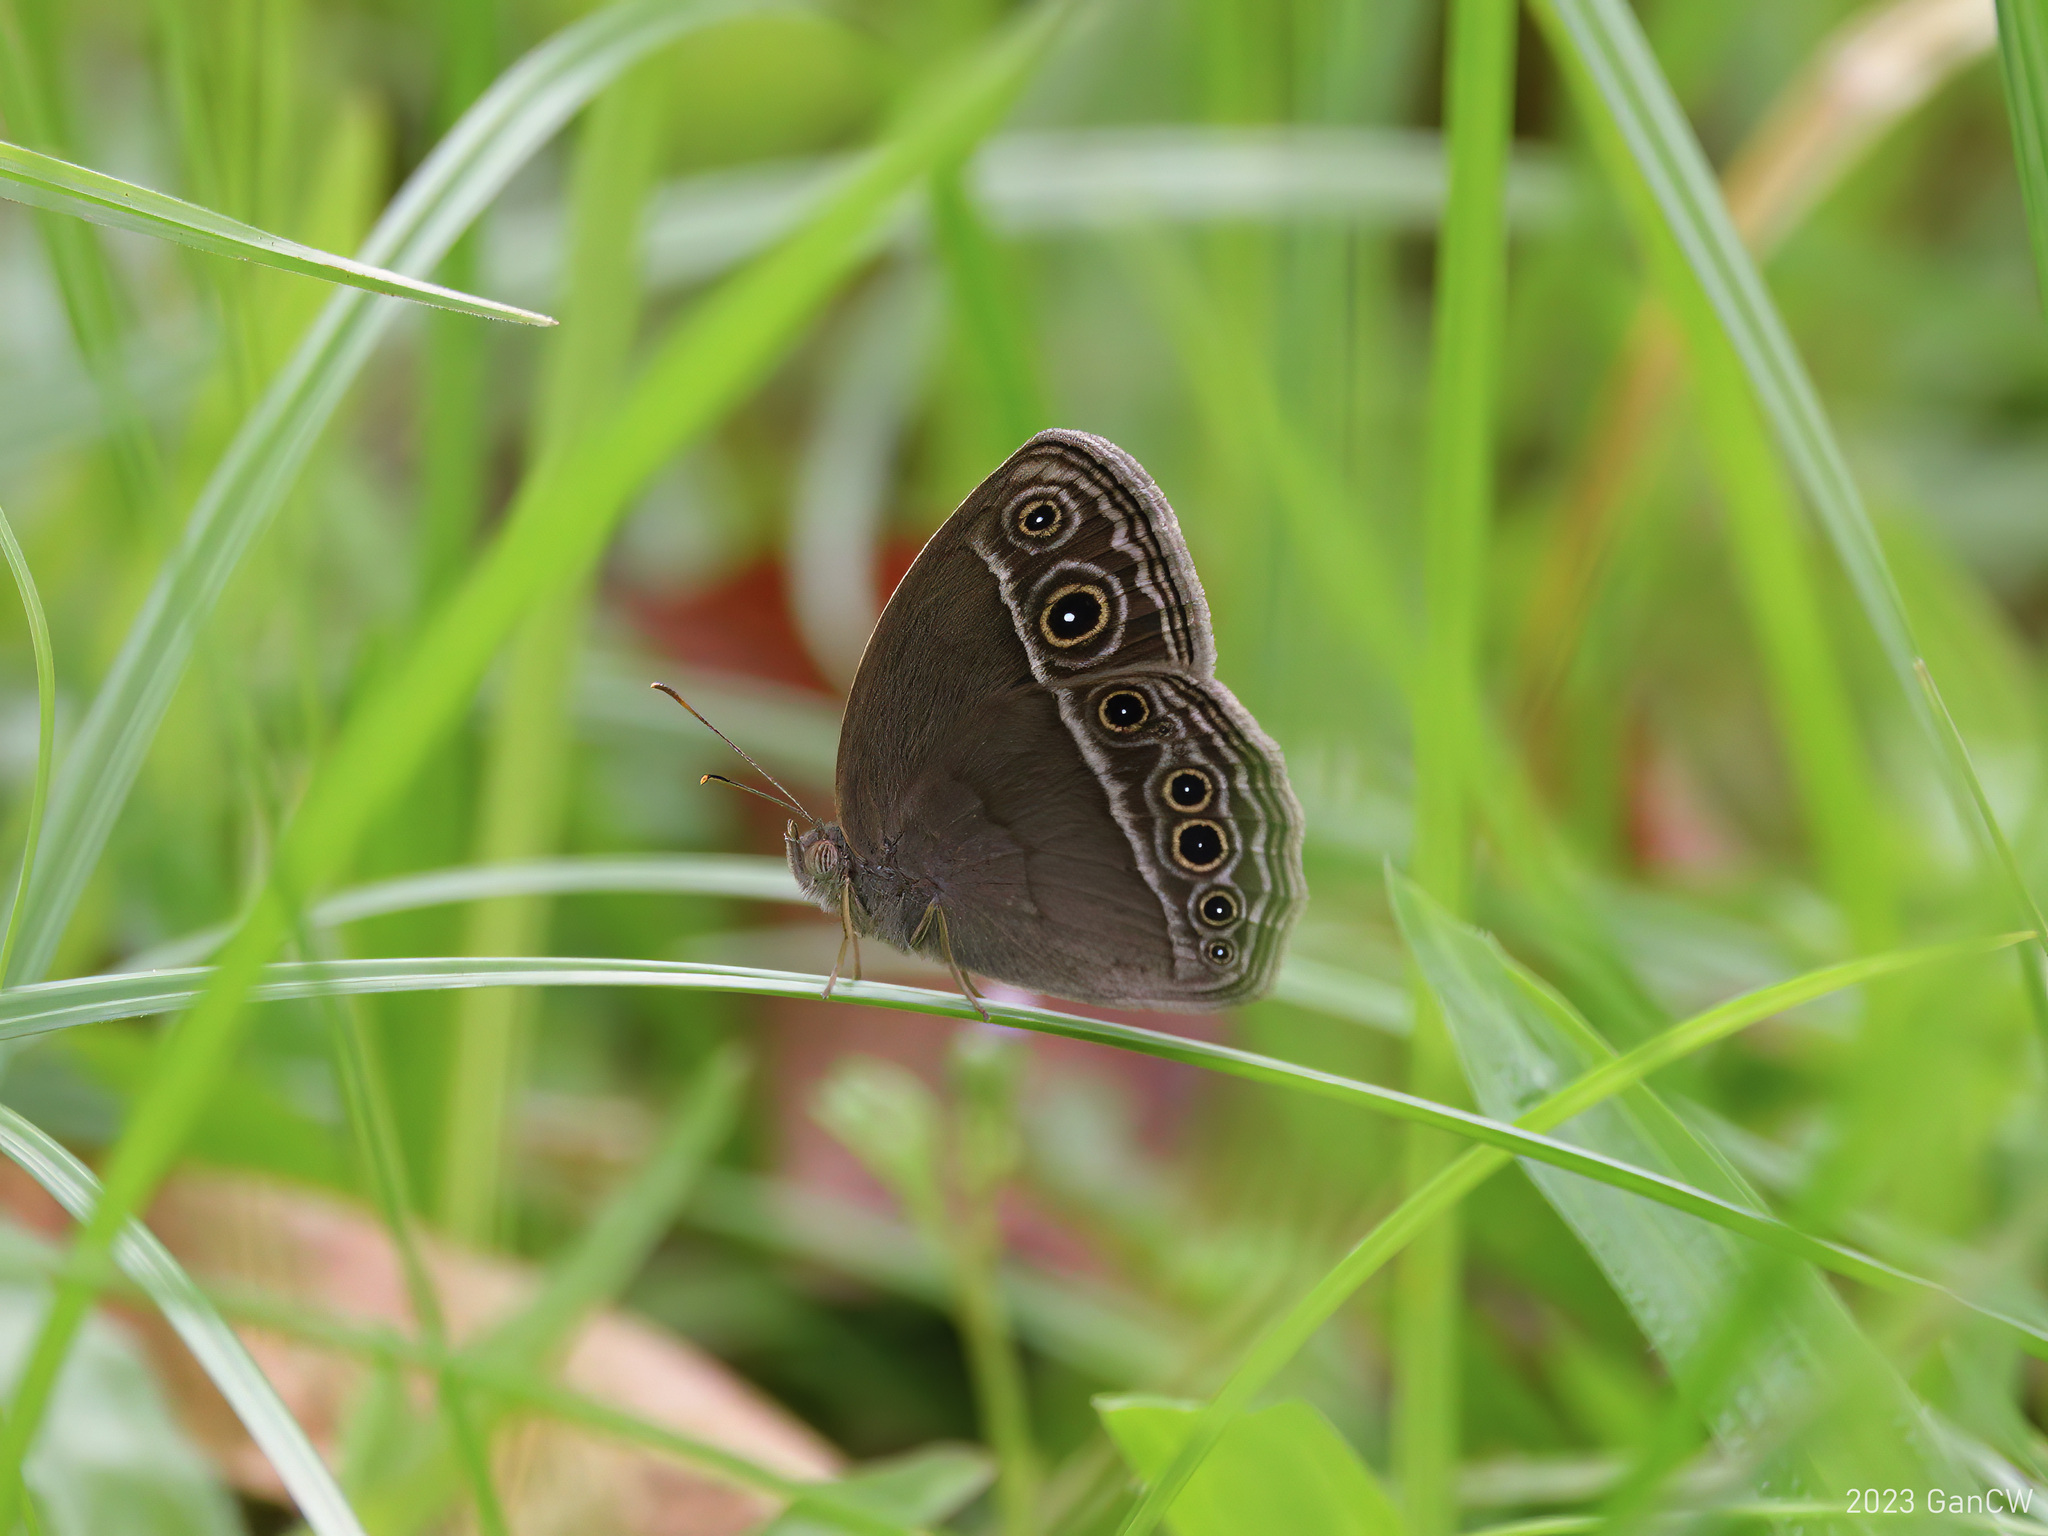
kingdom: Animalia
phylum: Arthropoda
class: Insecta
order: Lepidoptera
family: Nymphalidae
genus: Mycalesis
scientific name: Mycalesis mineus
